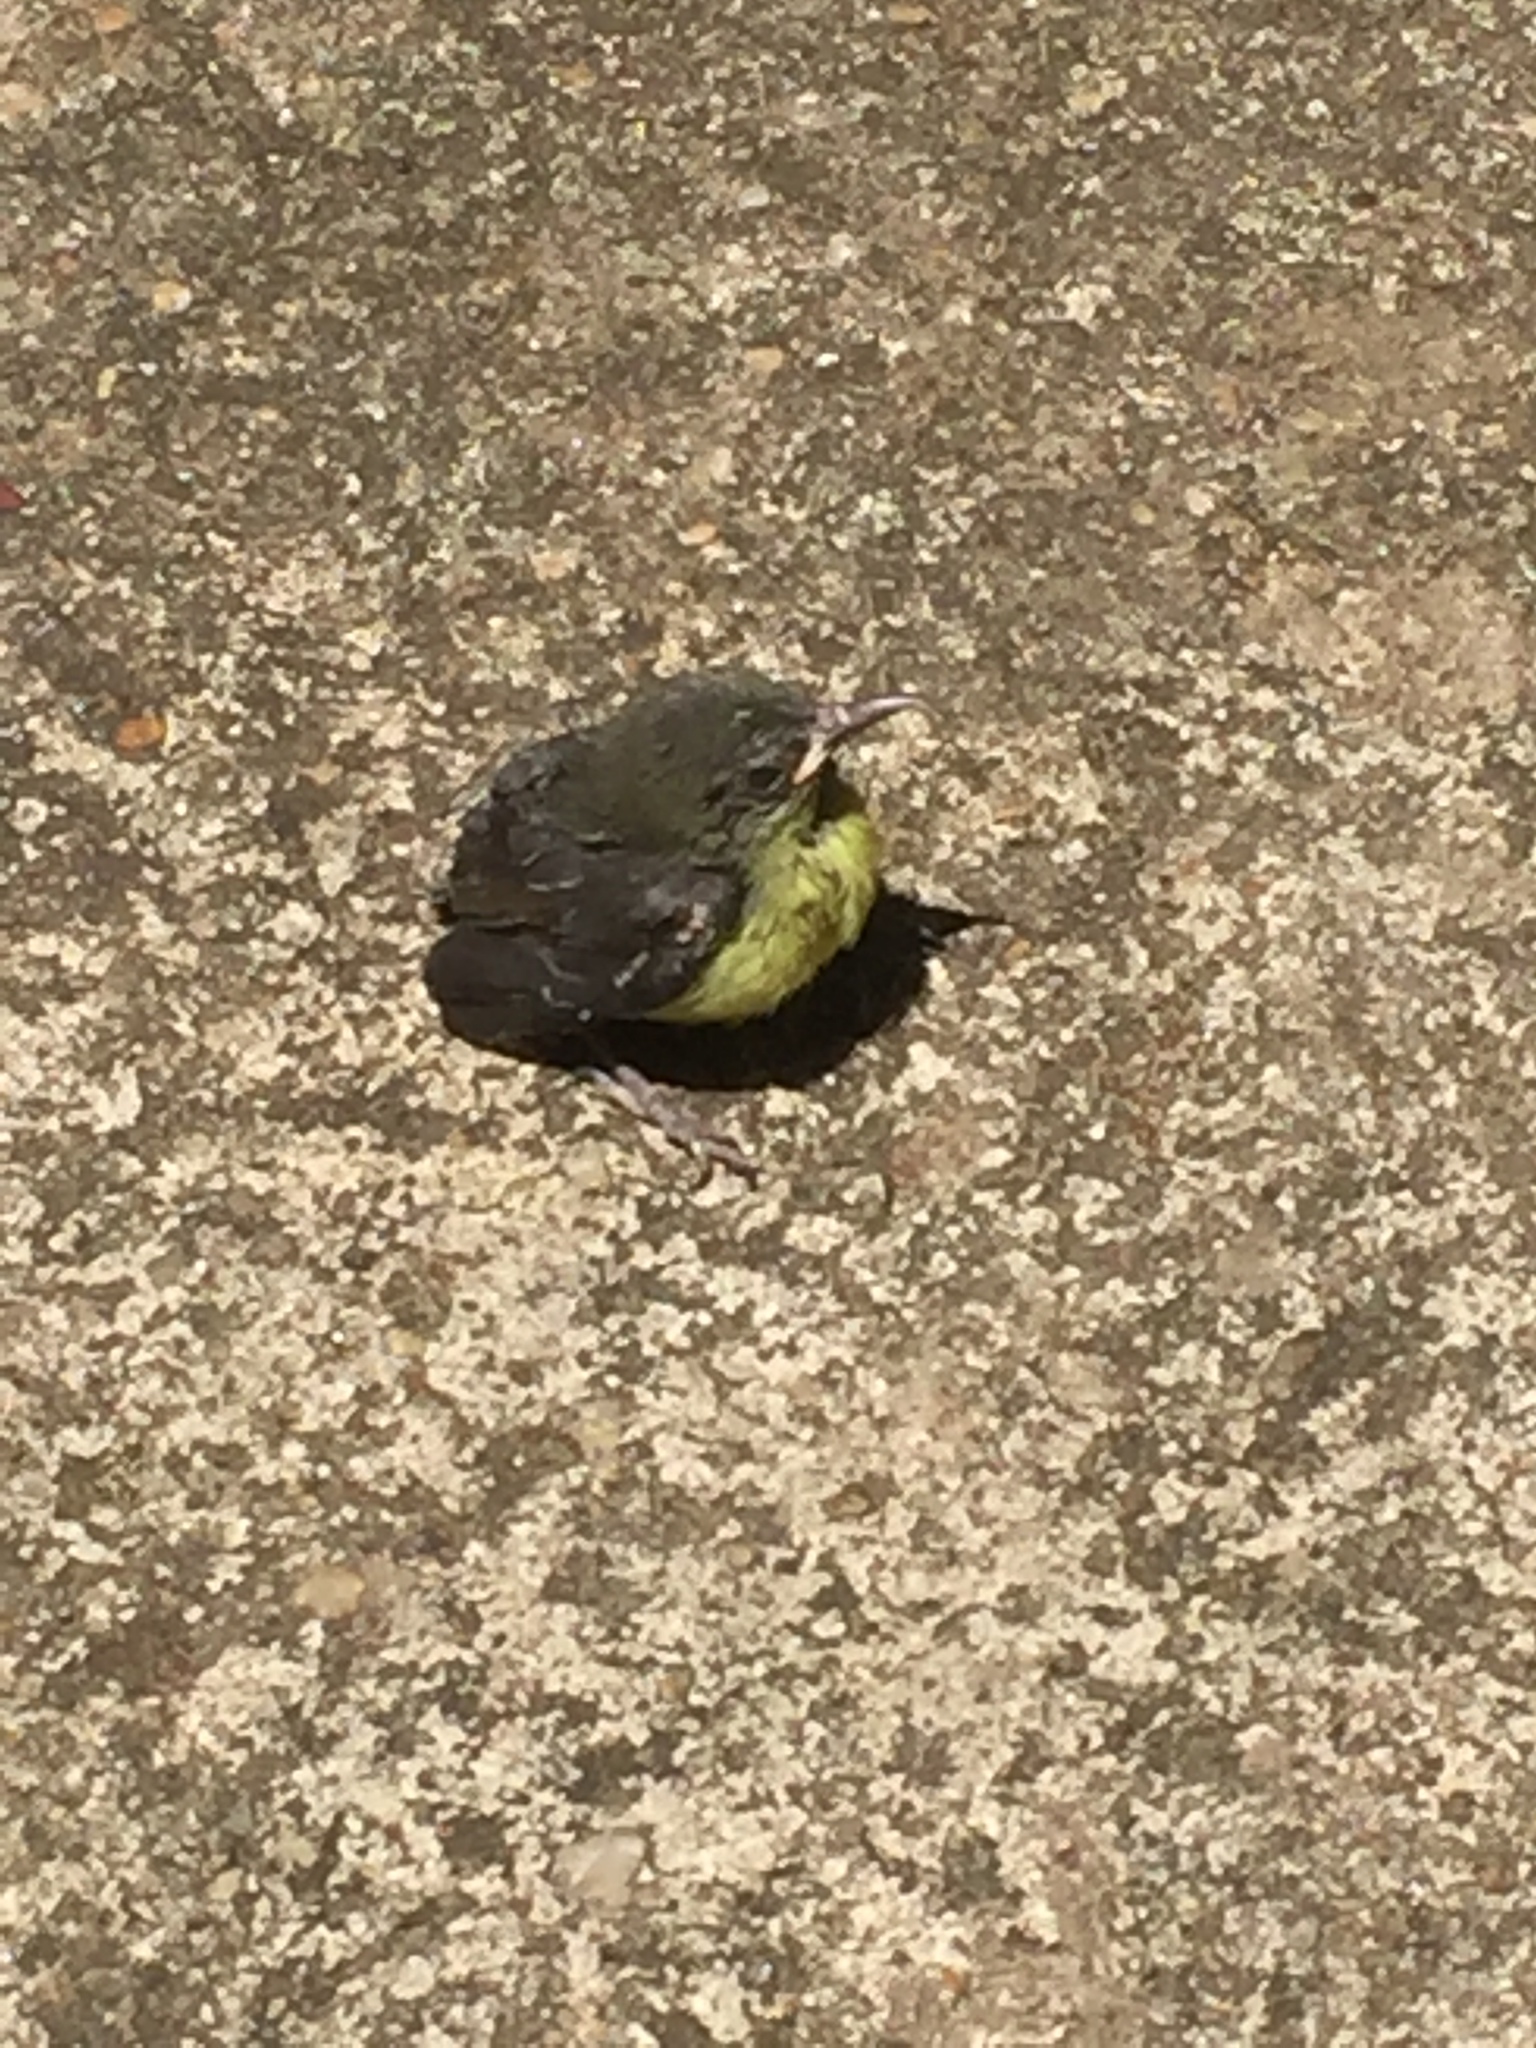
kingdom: Animalia
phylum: Chordata
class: Aves
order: Passeriformes
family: Nectariniidae
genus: Leptocoma
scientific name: Leptocoma zeylonica
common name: Purple-rumped sunbird
